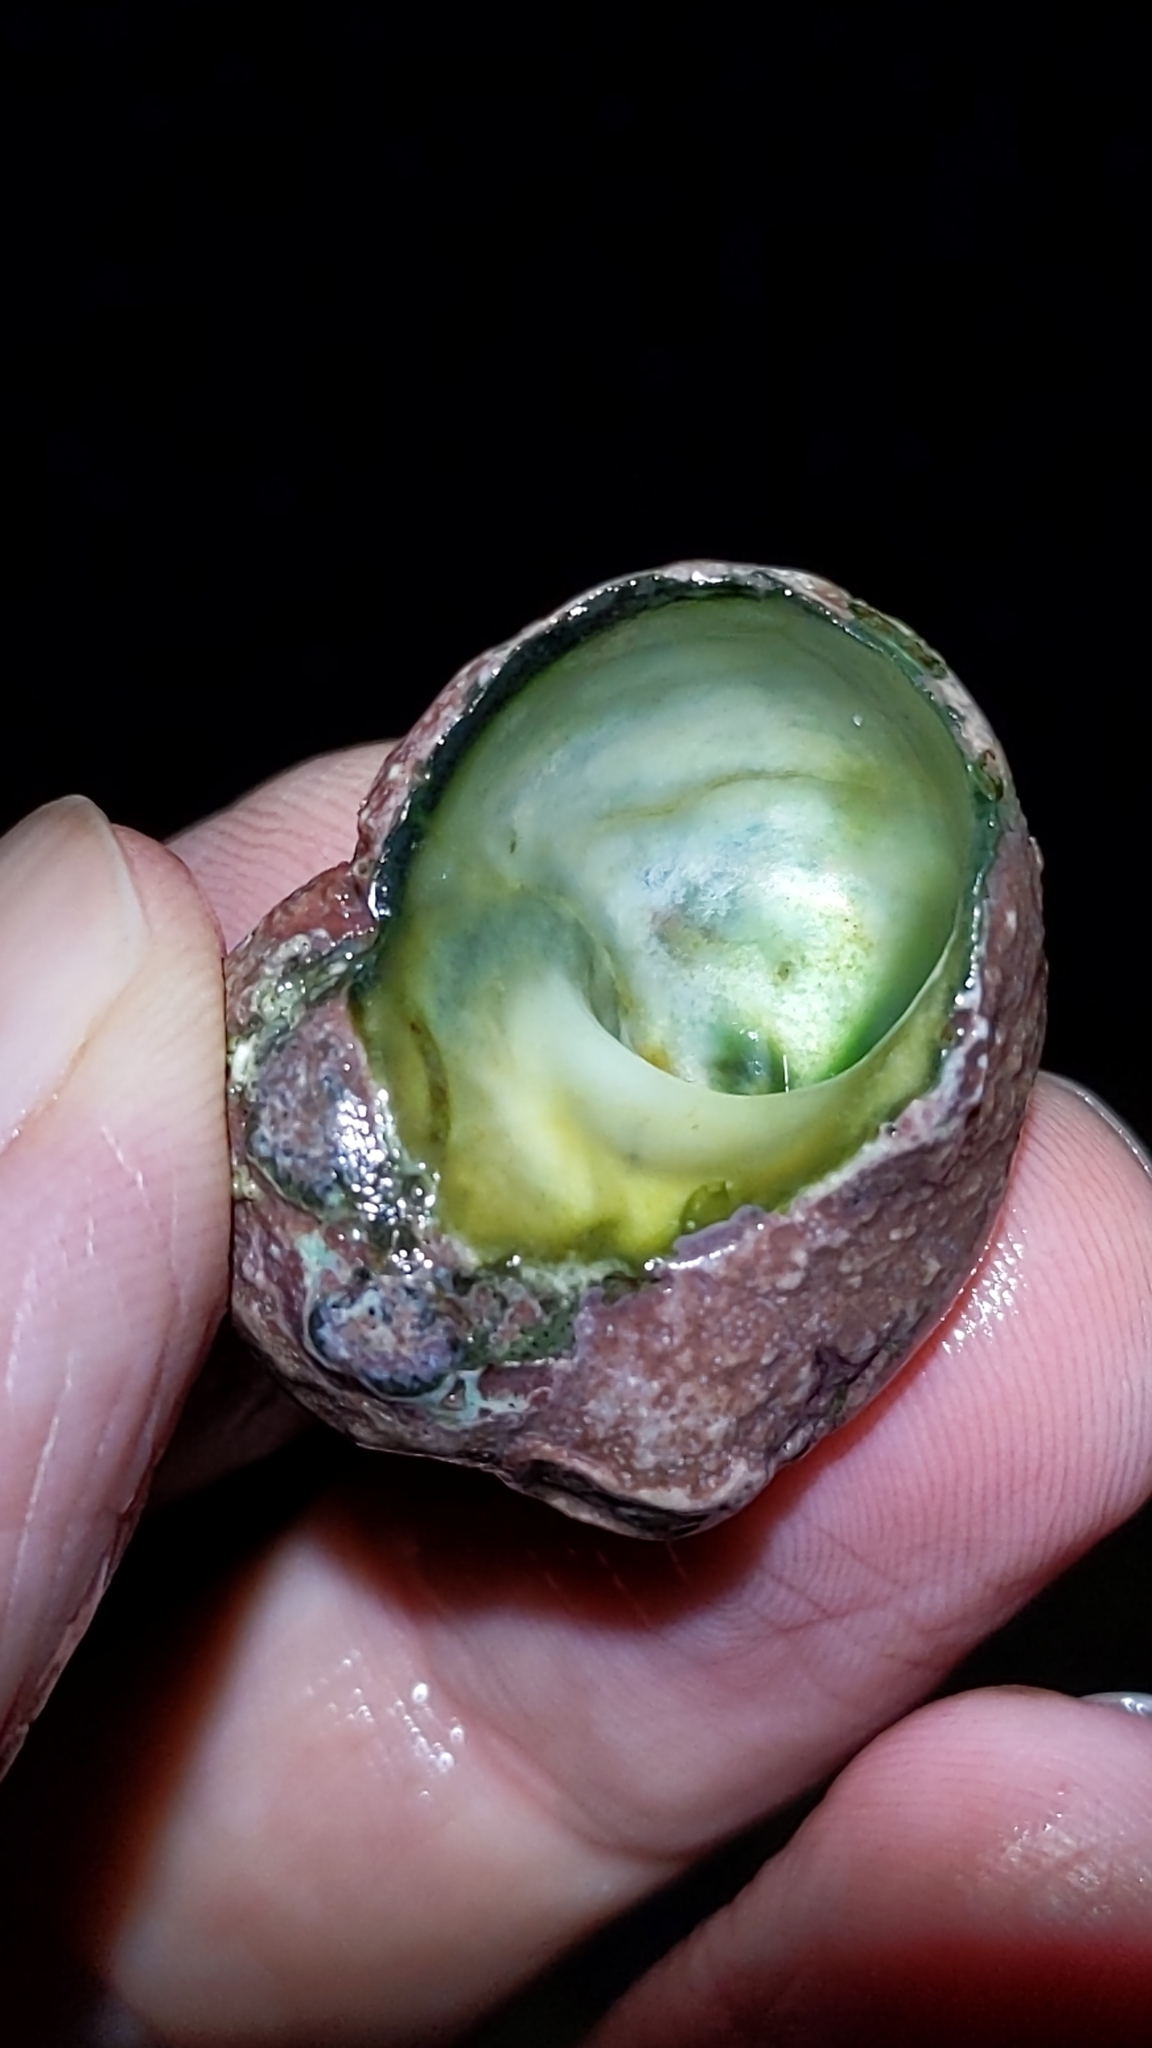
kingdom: Animalia
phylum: Mollusca
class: Gastropoda
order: Trochida
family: Turbinidae
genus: Lunella
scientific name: Lunella smaragda
